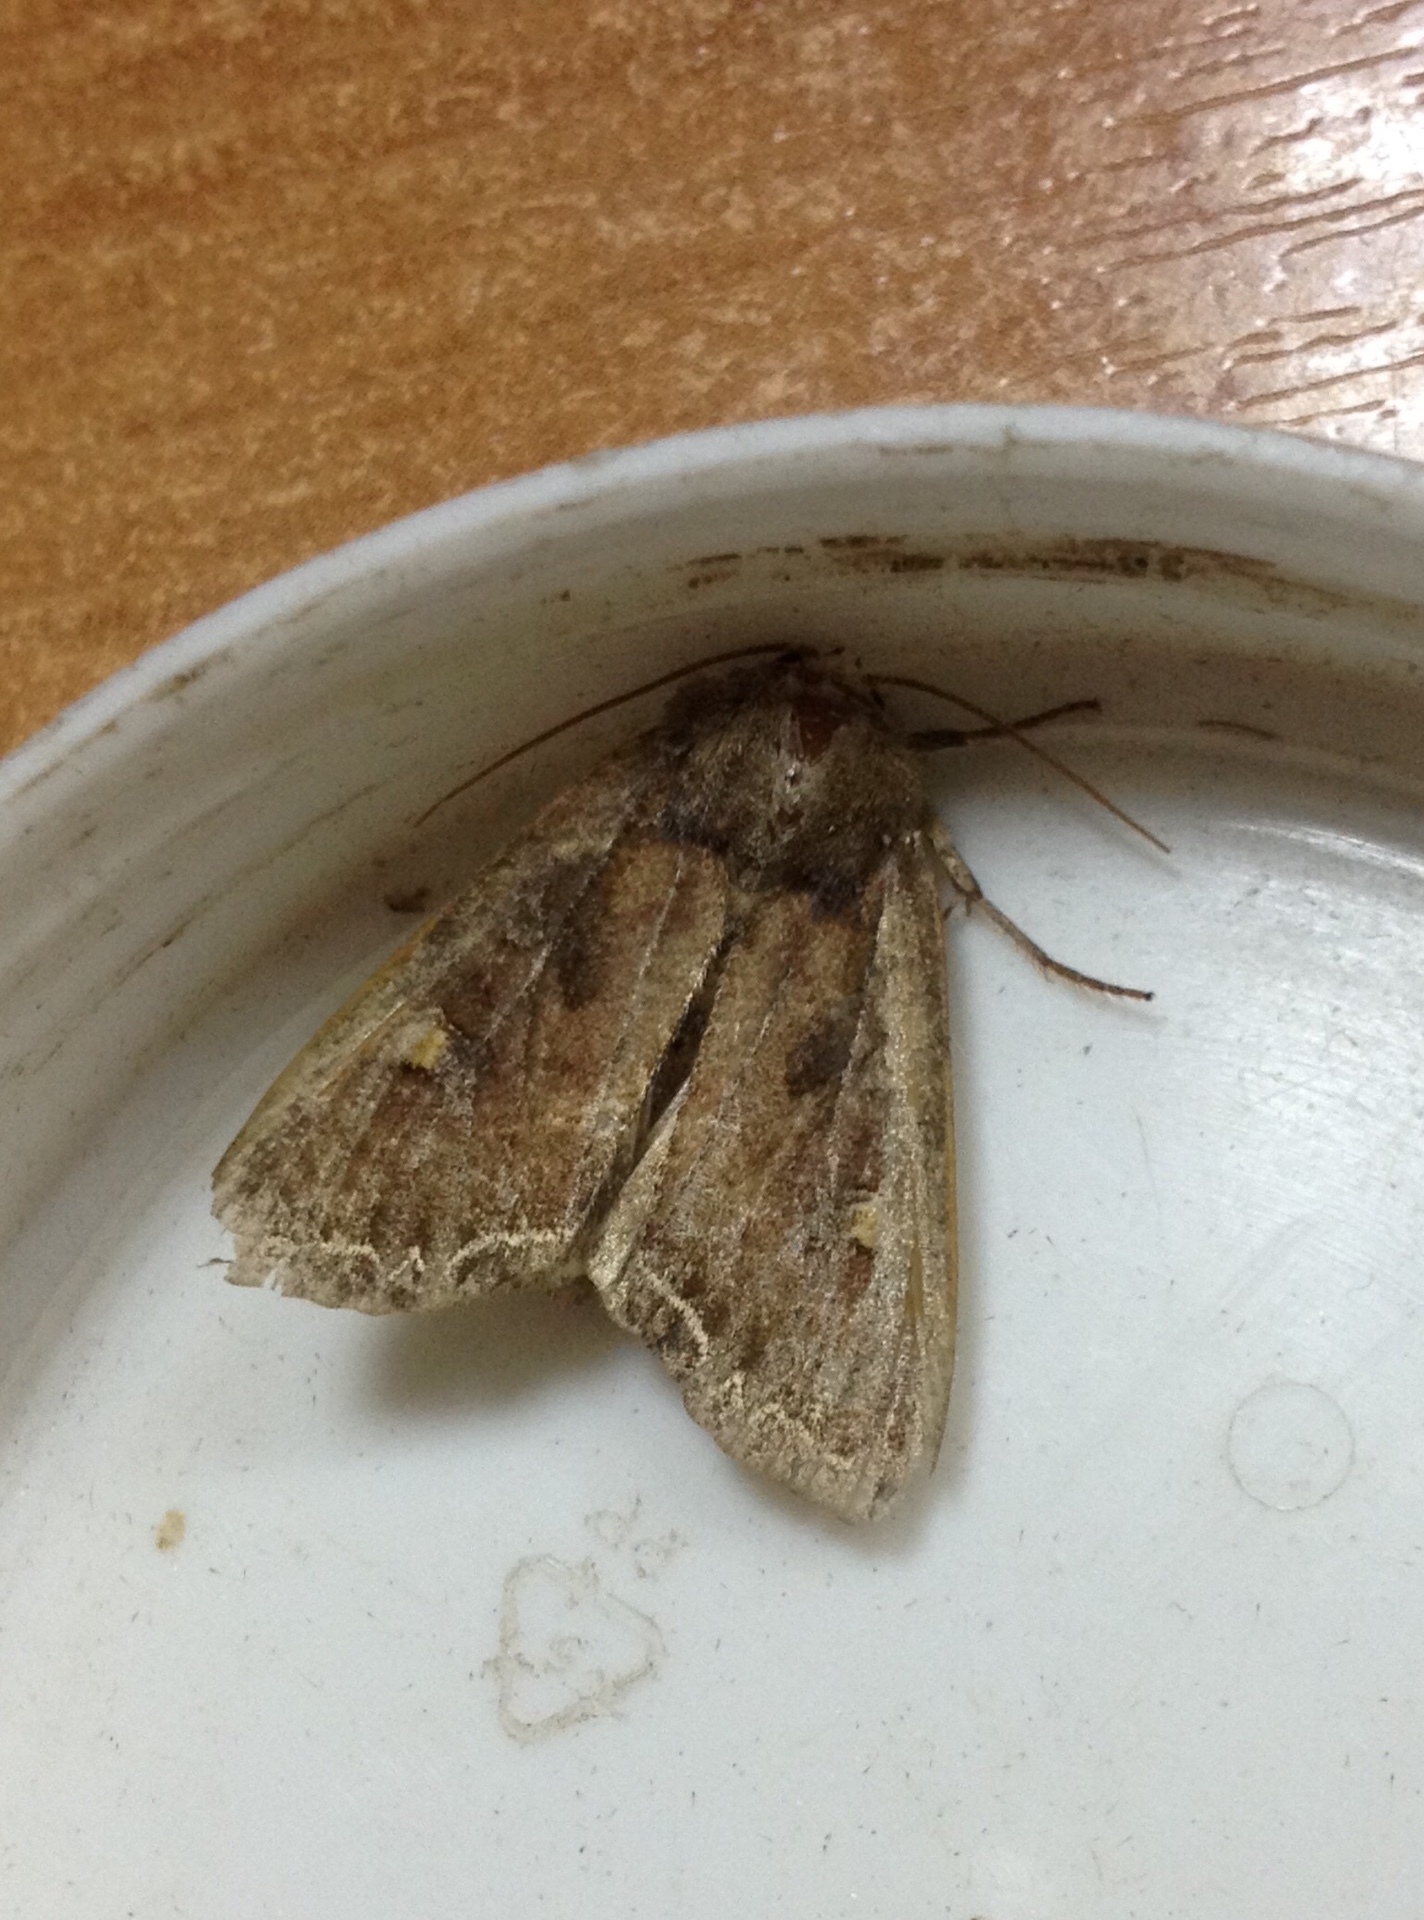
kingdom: Animalia
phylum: Arthropoda
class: Insecta
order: Lepidoptera
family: Noctuidae
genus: Lacanobia
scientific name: Lacanobia oleracea
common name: Bright-line brown-eye
